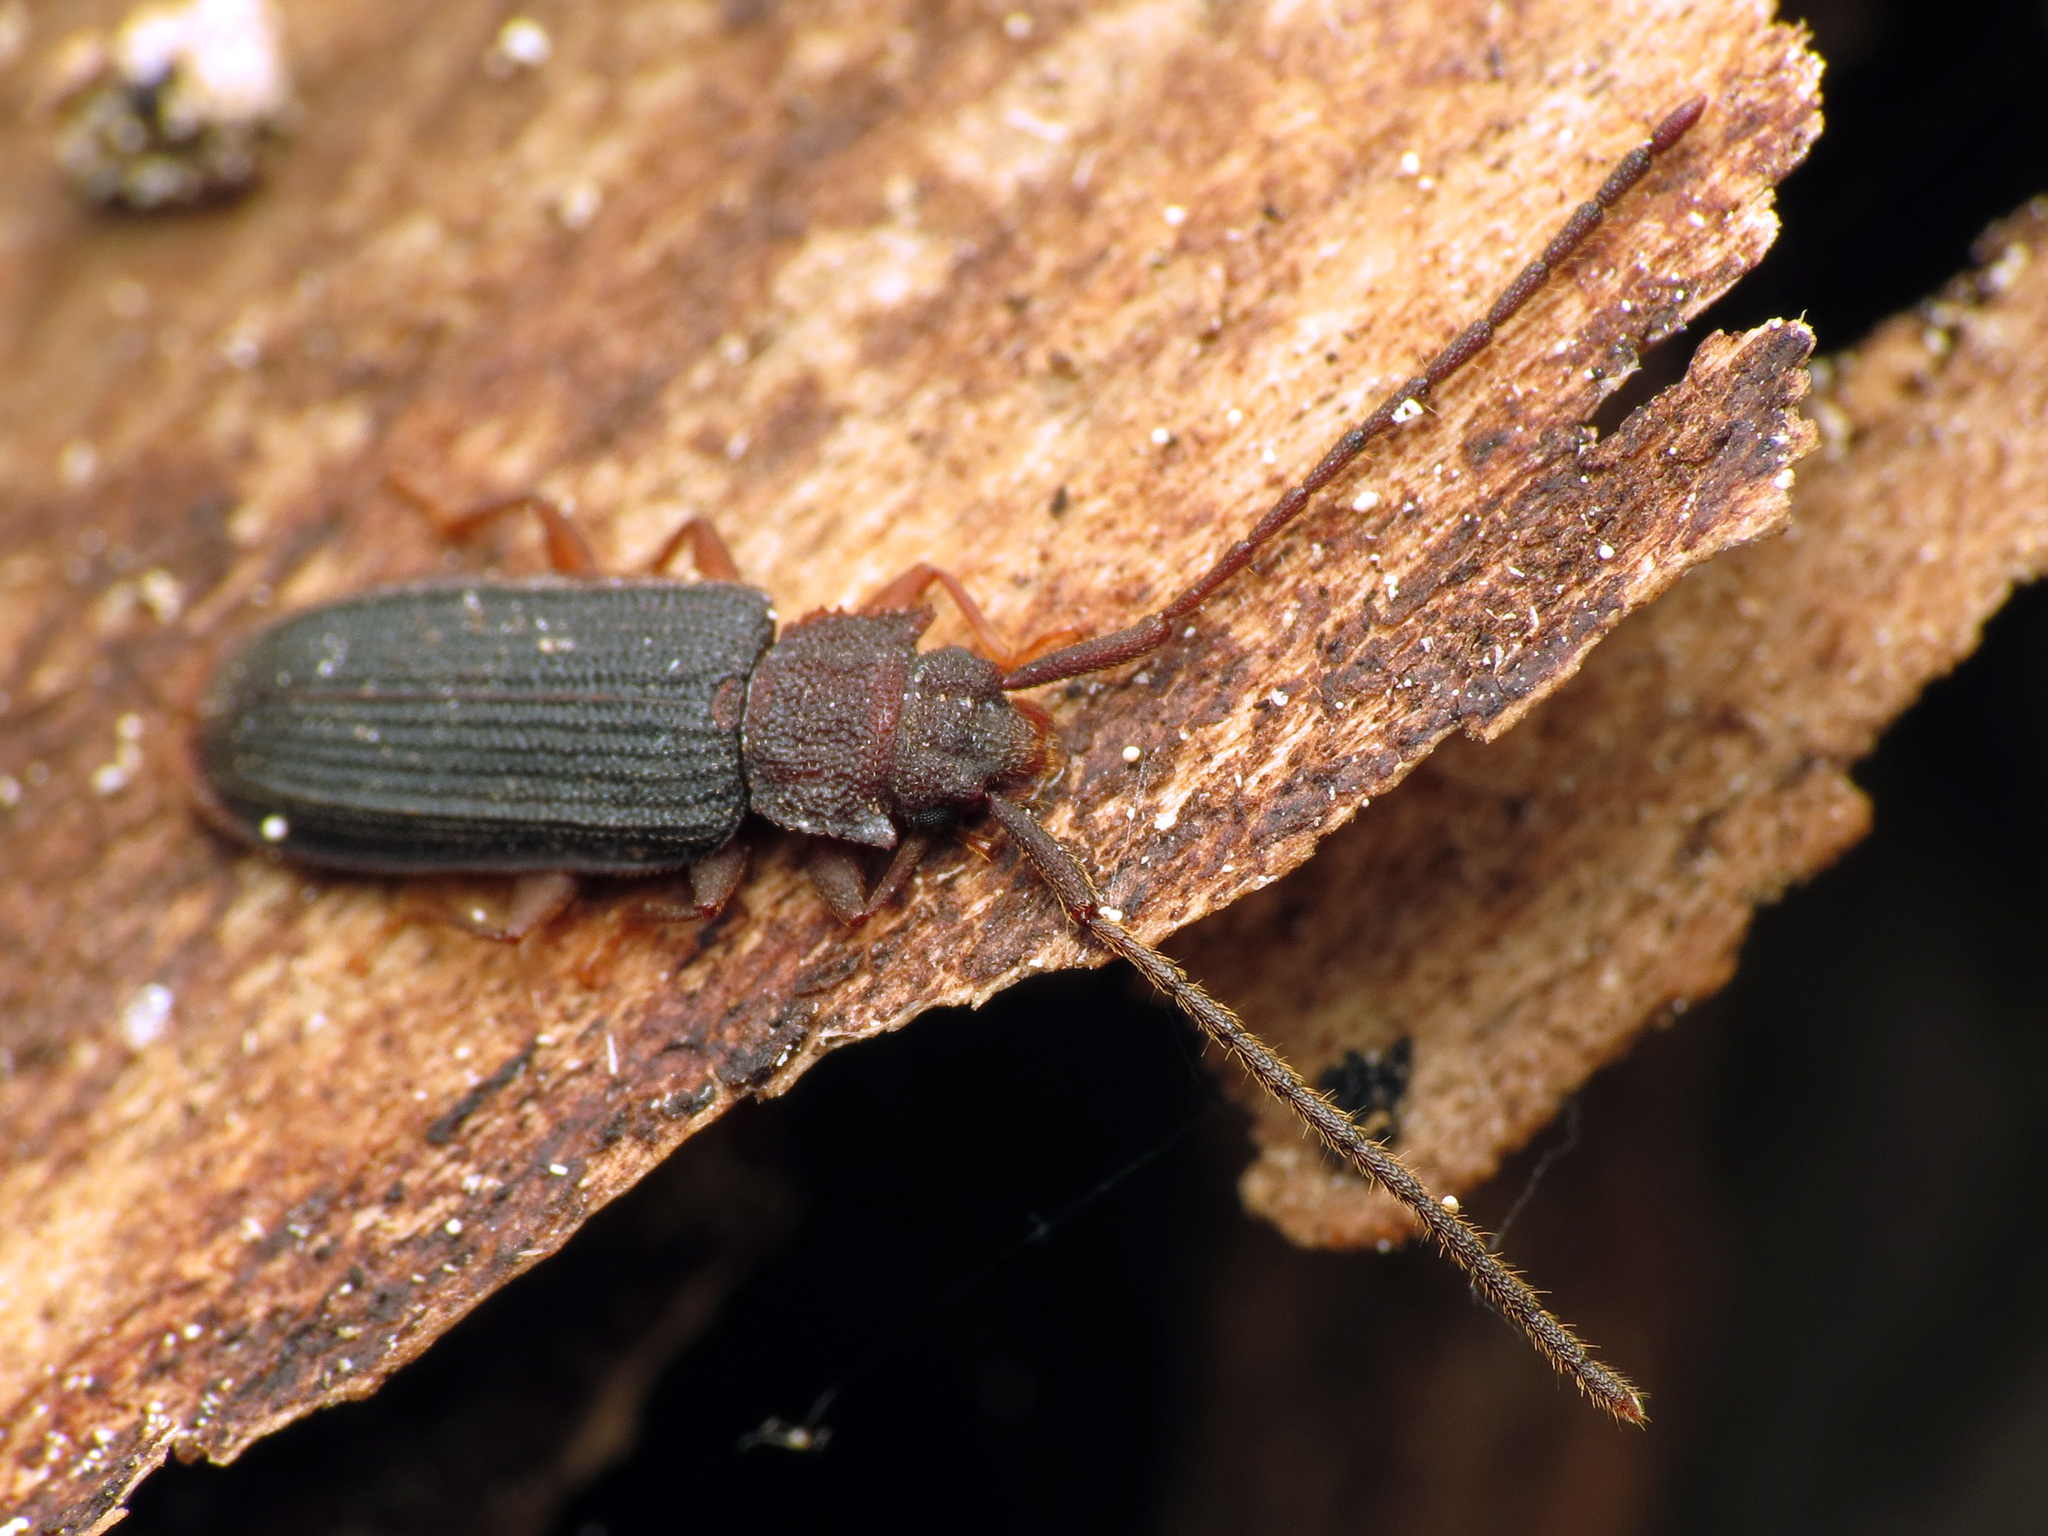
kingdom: Animalia
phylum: Arthropoda
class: Insecta
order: Coleoptera
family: Silvanidae
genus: Uleiota
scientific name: Uleiota dubia
